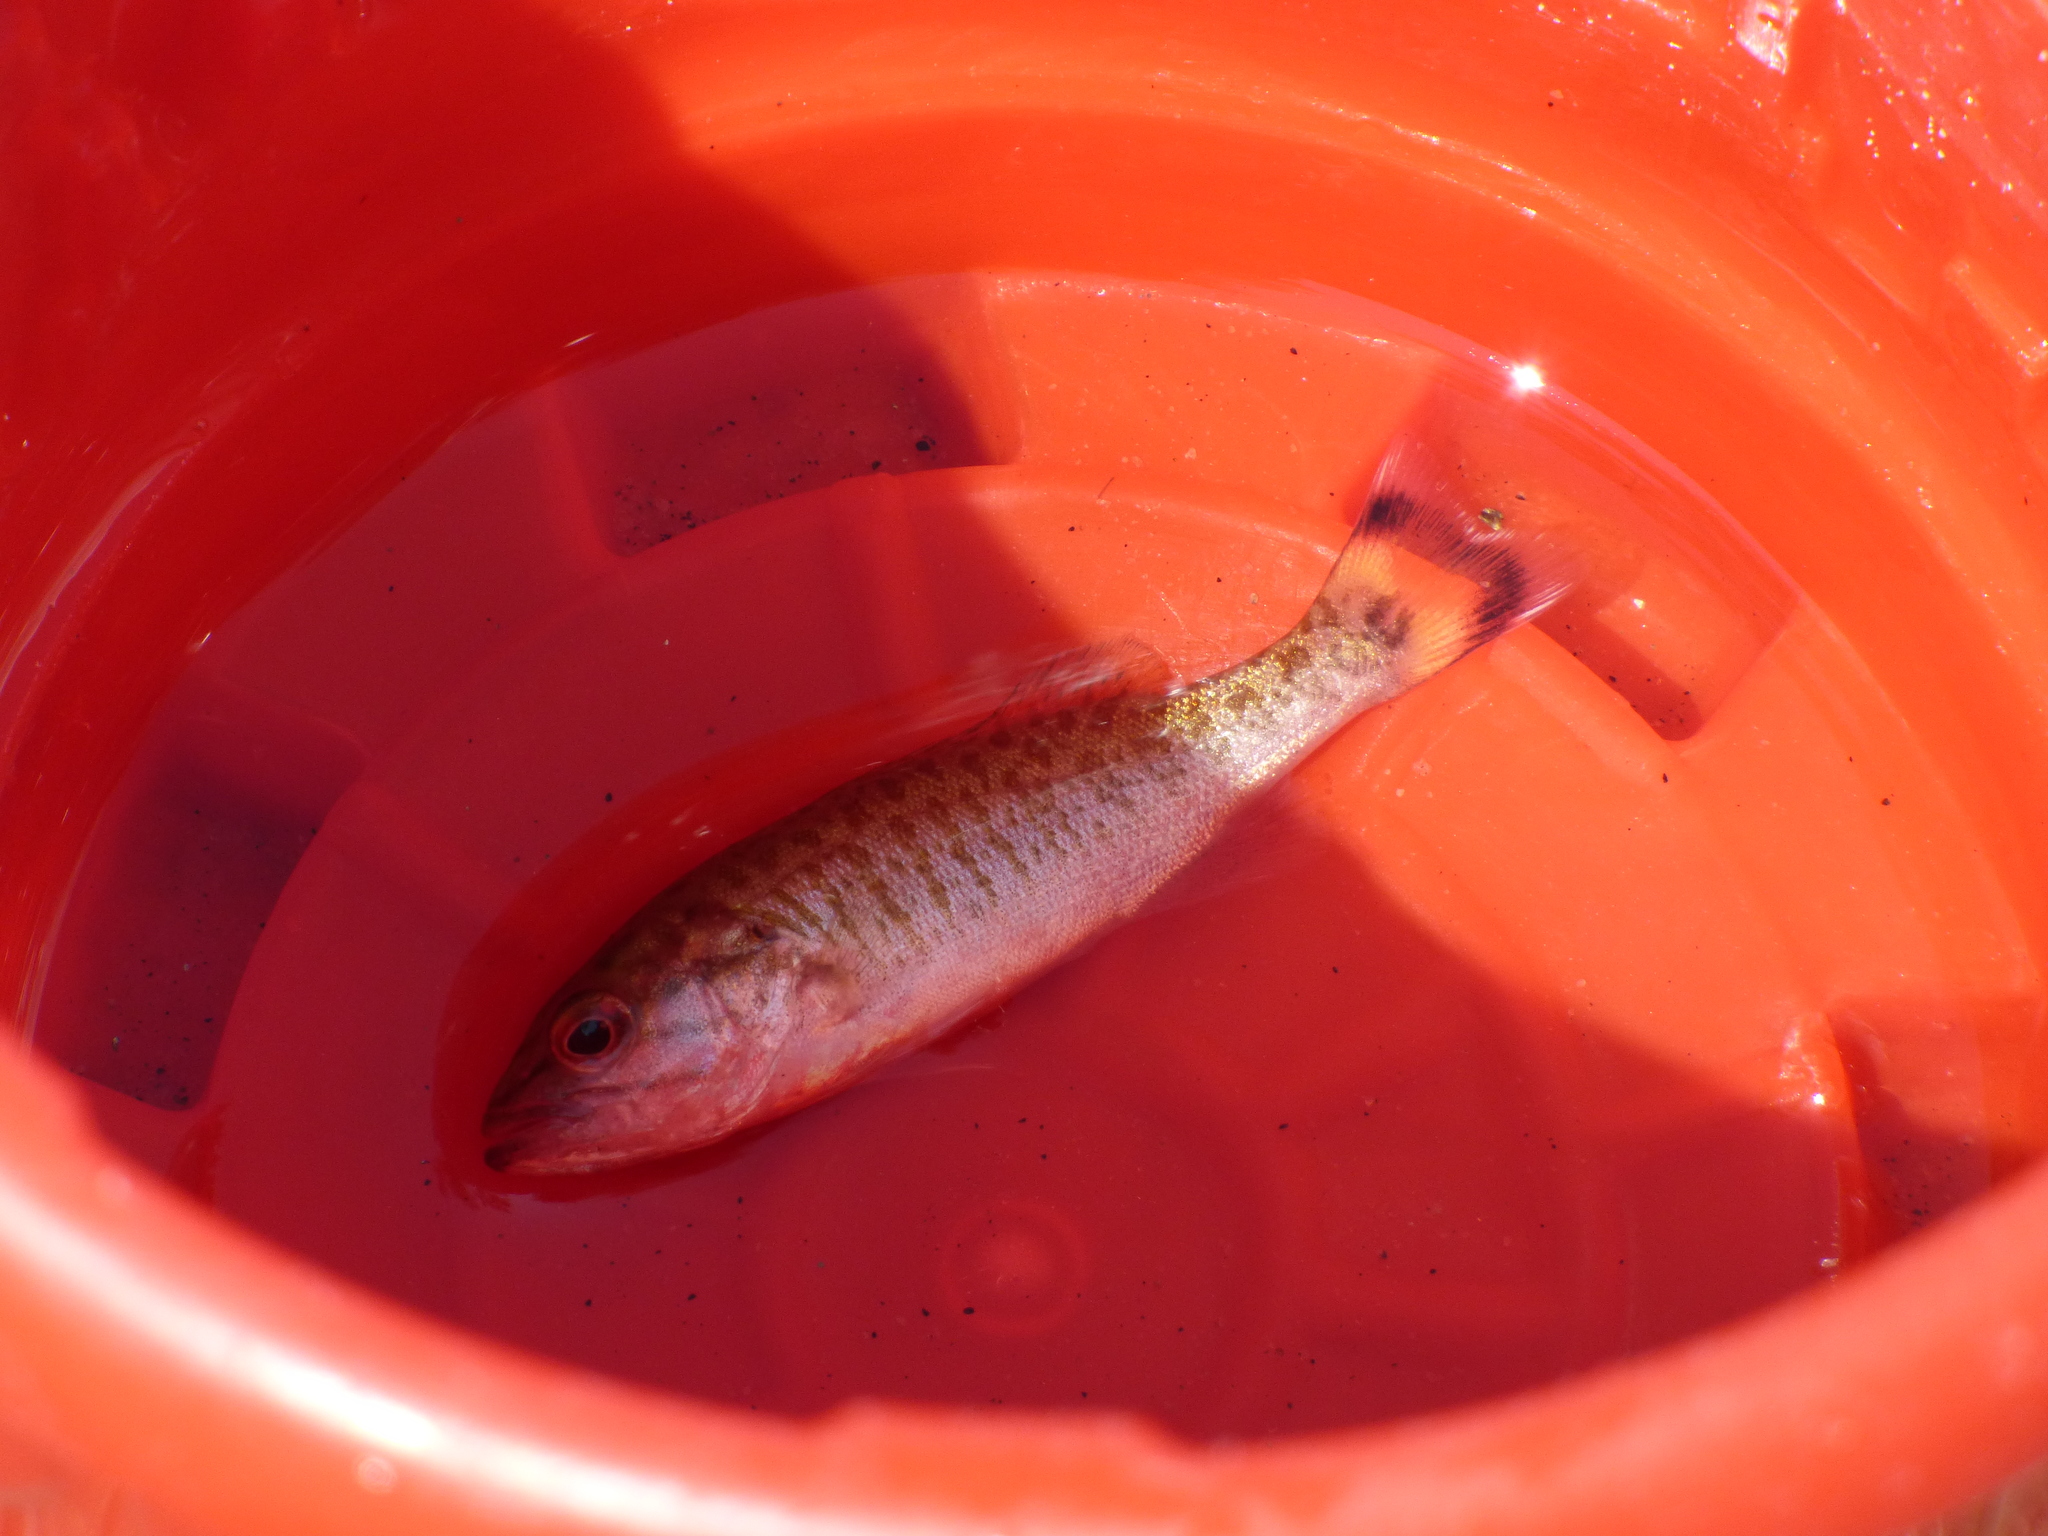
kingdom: Animalia
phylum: Chordata
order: Perciformes
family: Centrarchidae
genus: Micropterus
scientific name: Micropterus dolomieu
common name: Smallmouth bass
